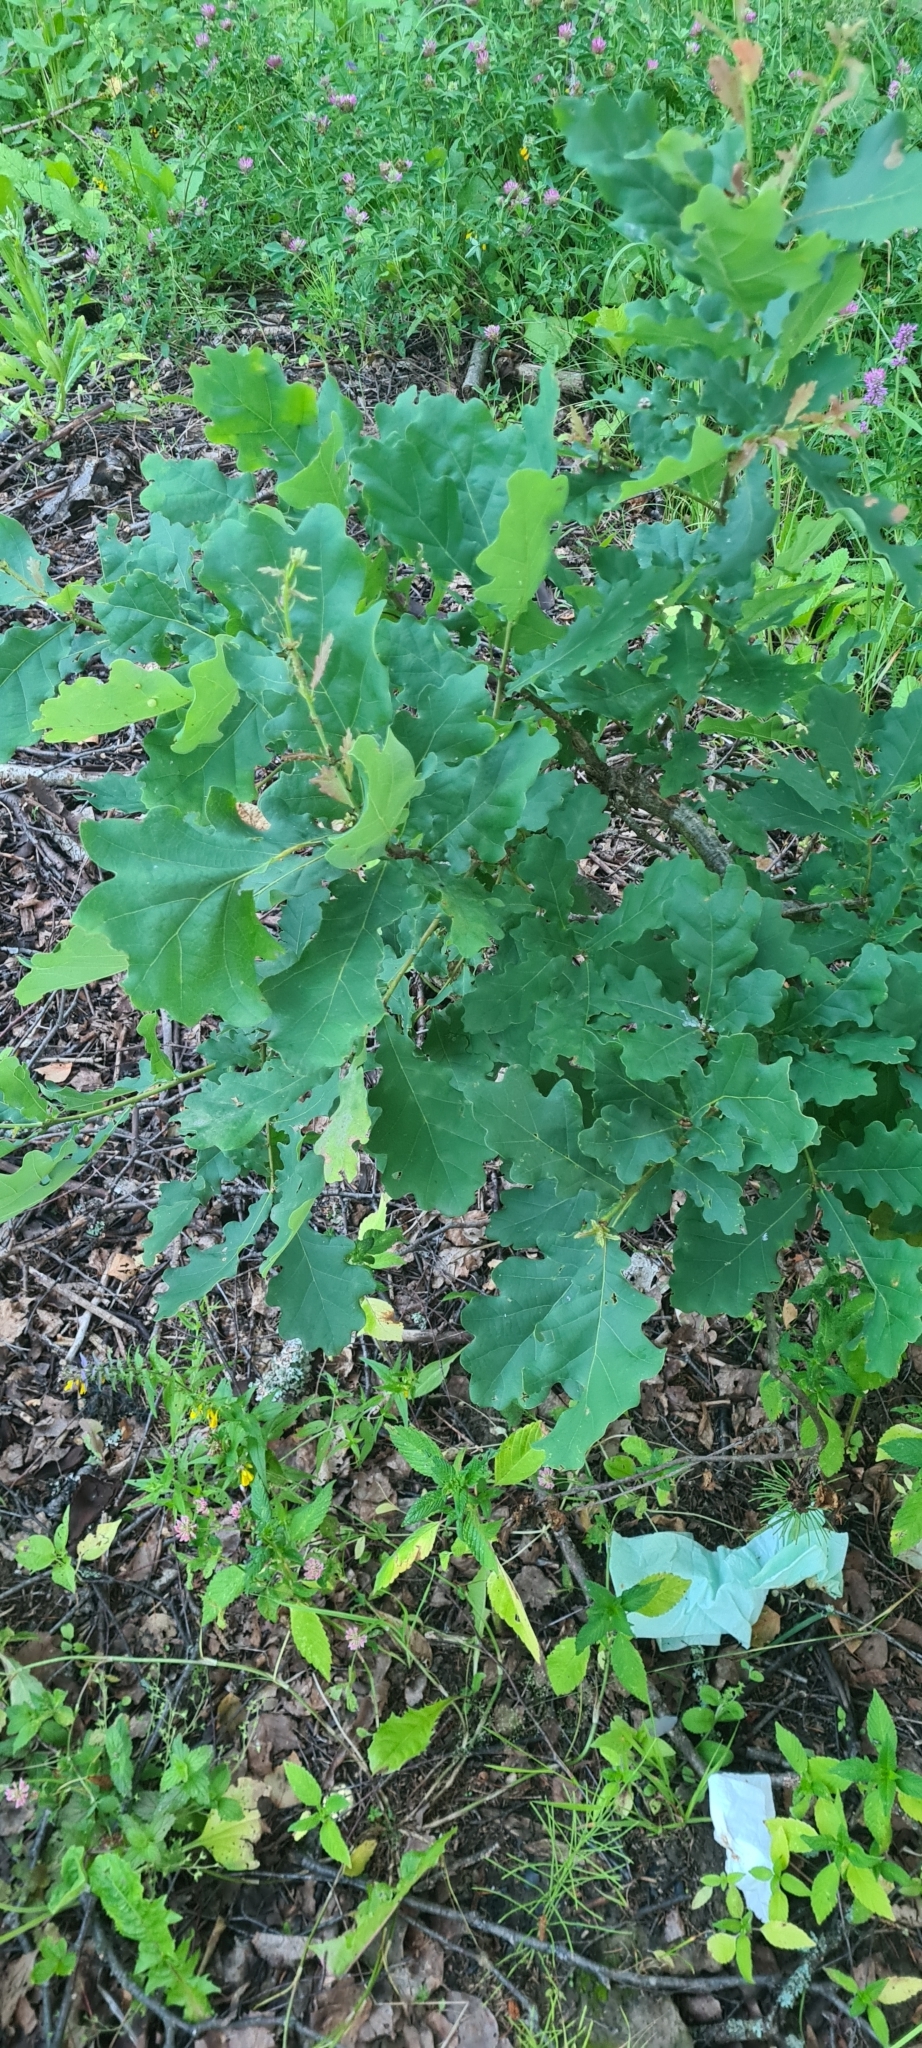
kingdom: Plantae
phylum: Tracheophyta
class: Magnoliopsida
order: Fagales
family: Fagaceae
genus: Quercus
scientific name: Quercus robur
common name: Pedunculate oak
